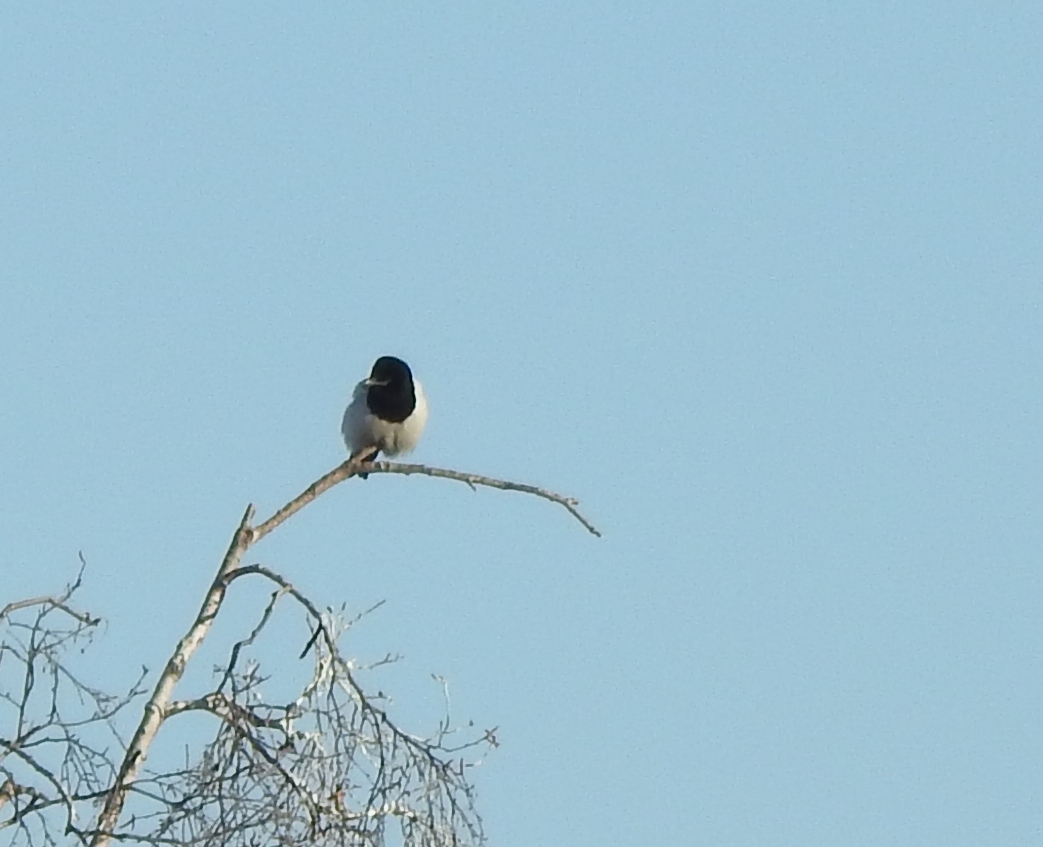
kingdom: Animalia
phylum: Chordata
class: Aves
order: Passeriformes
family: Corvidae
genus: Pica
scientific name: Pica pica
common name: Eurasian magpie
